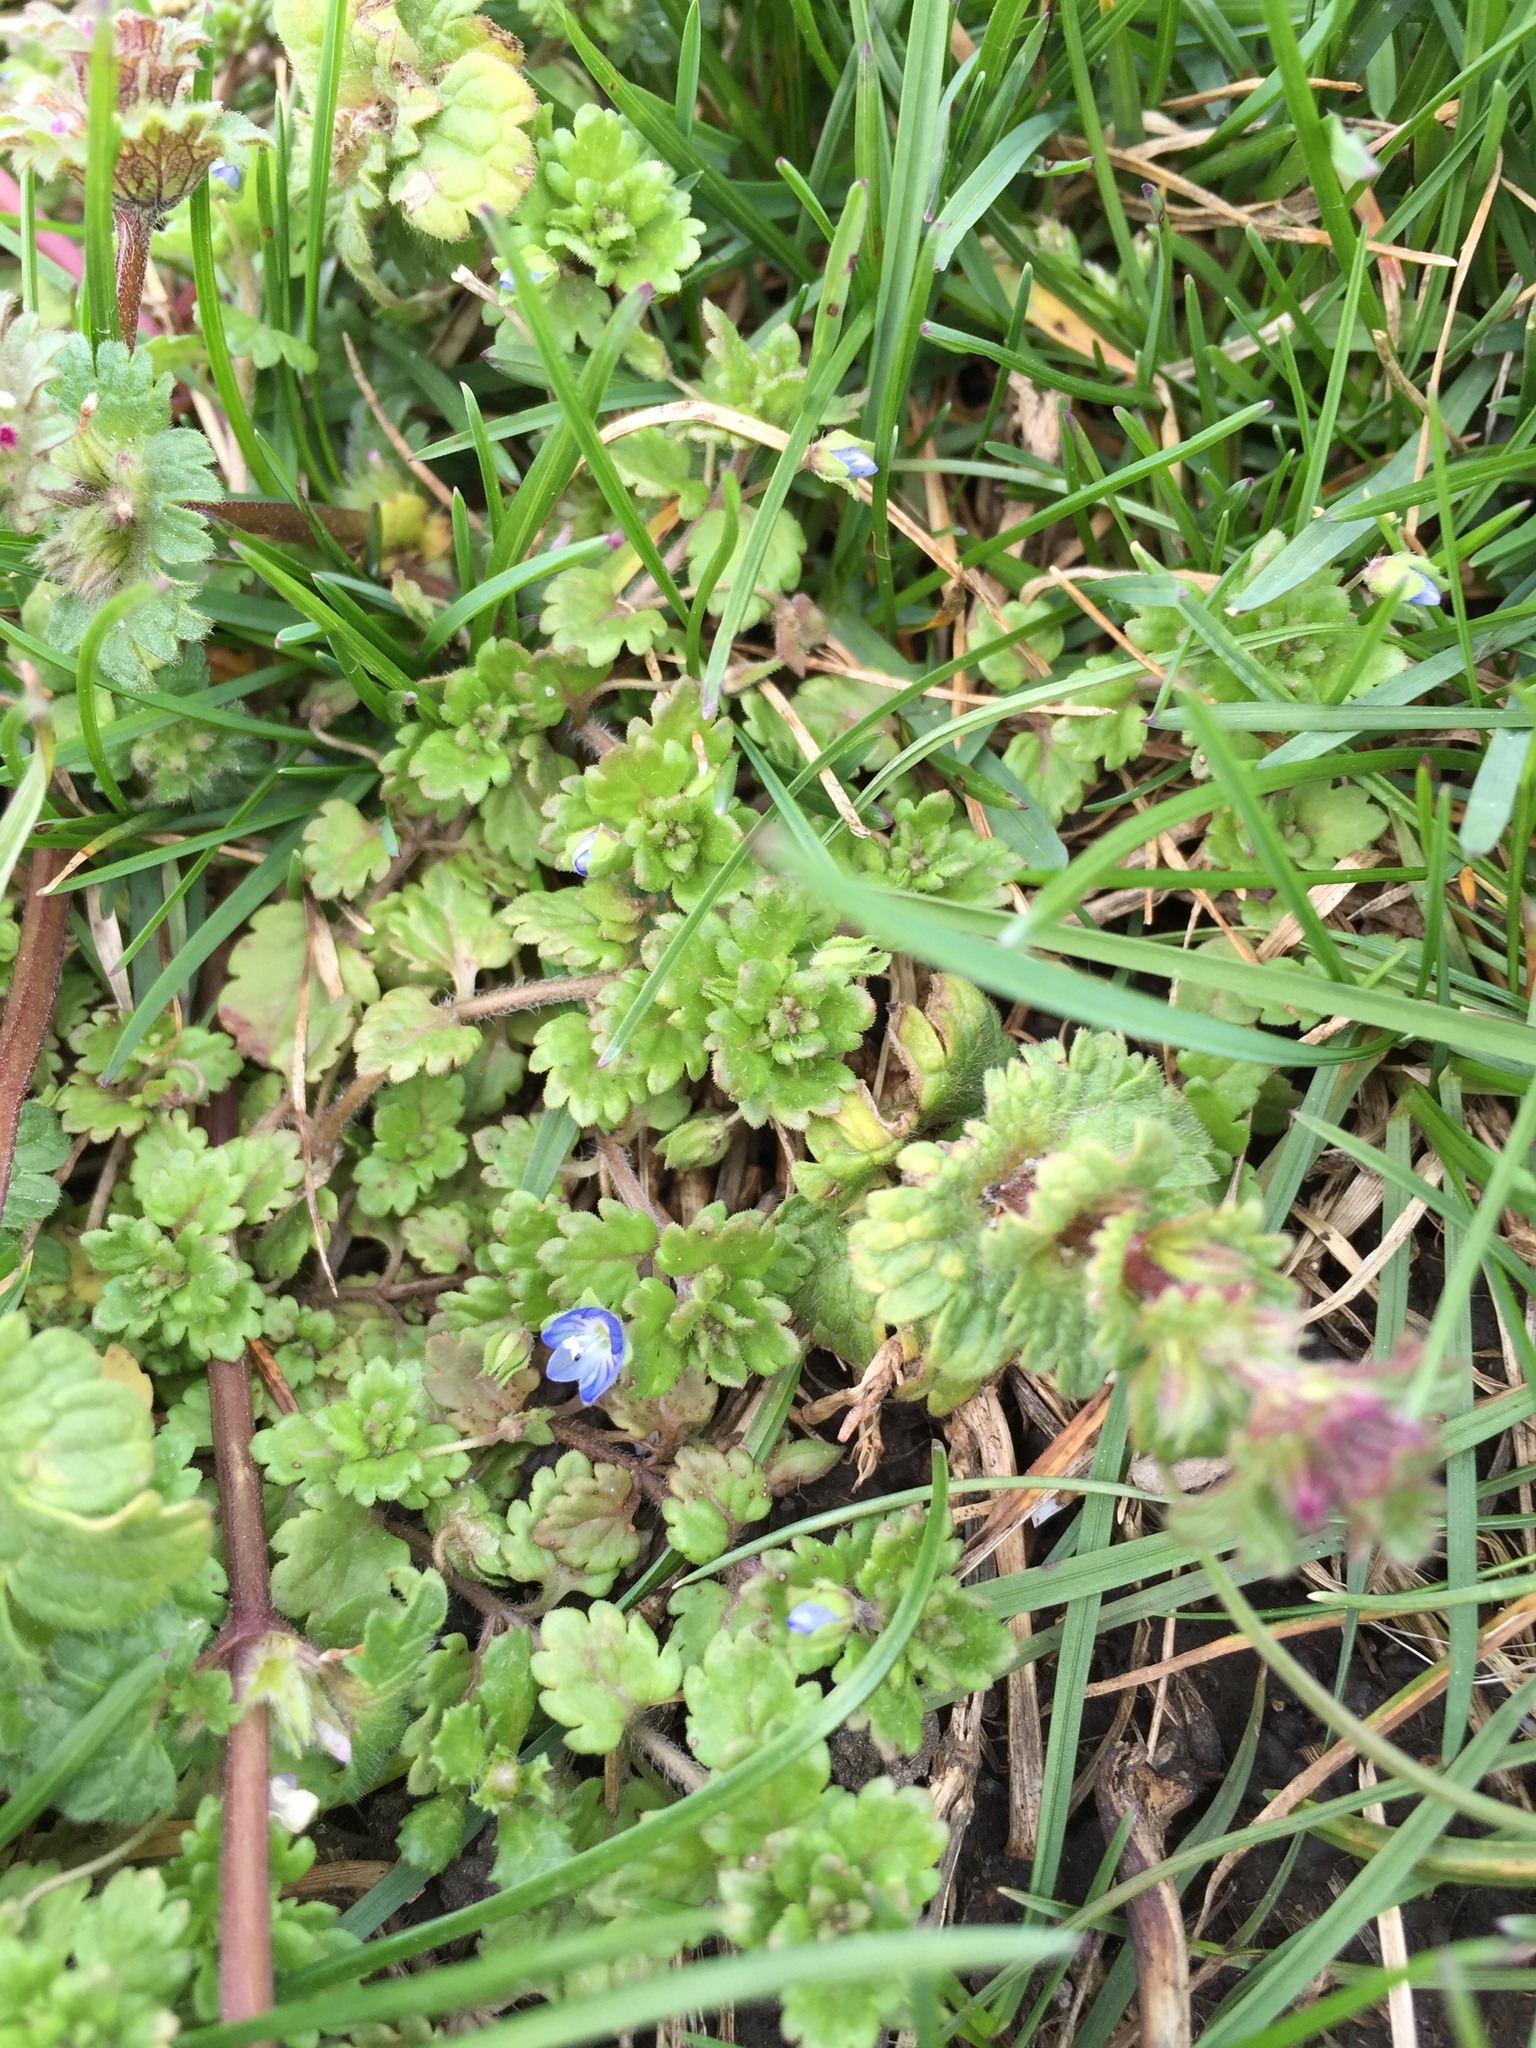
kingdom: Plantae
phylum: Tracheophyta
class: Magnoliopsida
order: Lamiales
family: Plantaginaceae
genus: Veronica
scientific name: Veronica polita
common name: Grey field-speedwell
